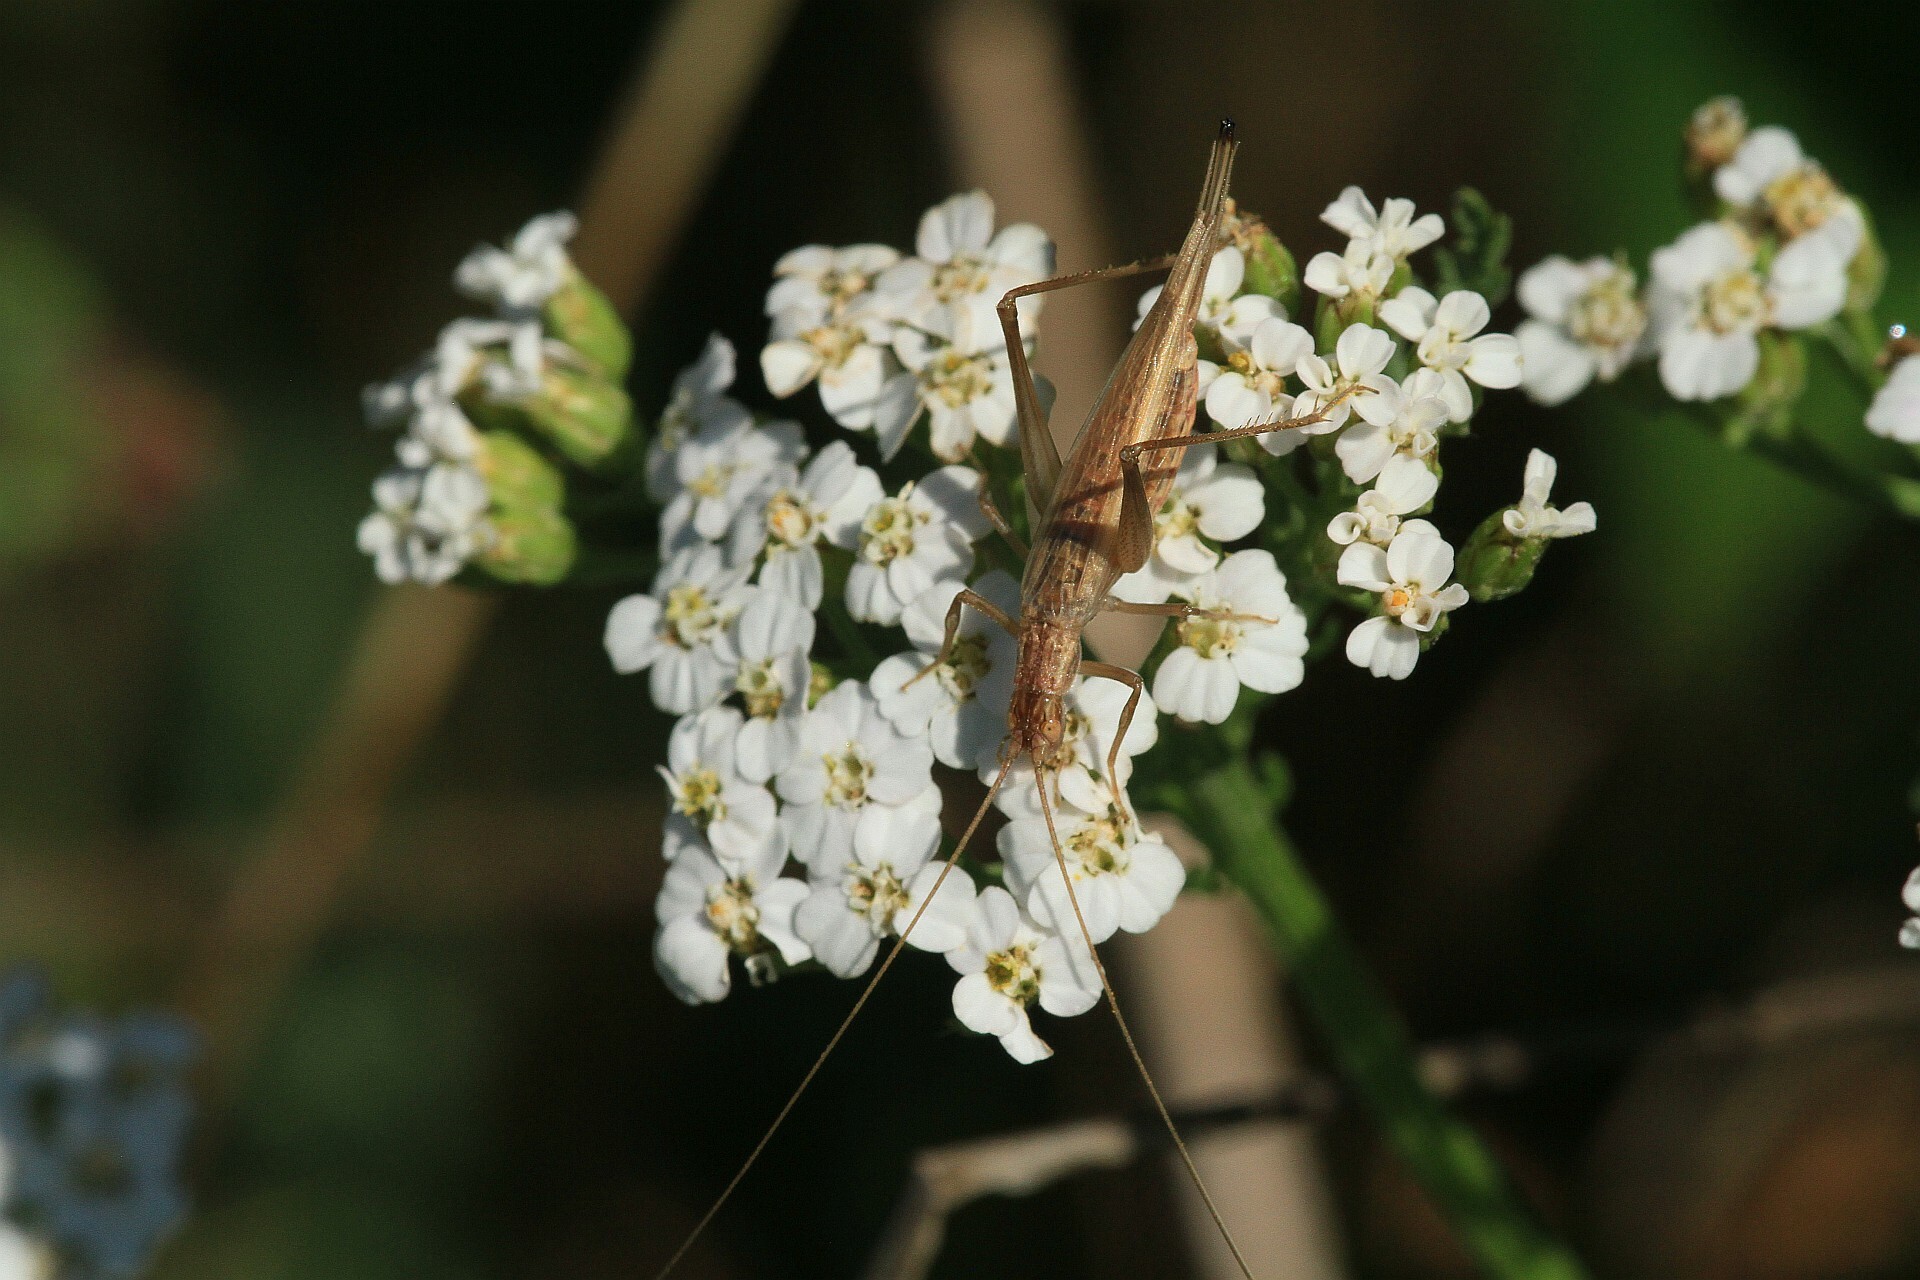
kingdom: Animalia
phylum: Arthropoda
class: Insecta
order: Orthoptera
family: Gryllidae
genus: Oecanthus
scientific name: Oecanthus pellucens
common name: Tree-cricket
